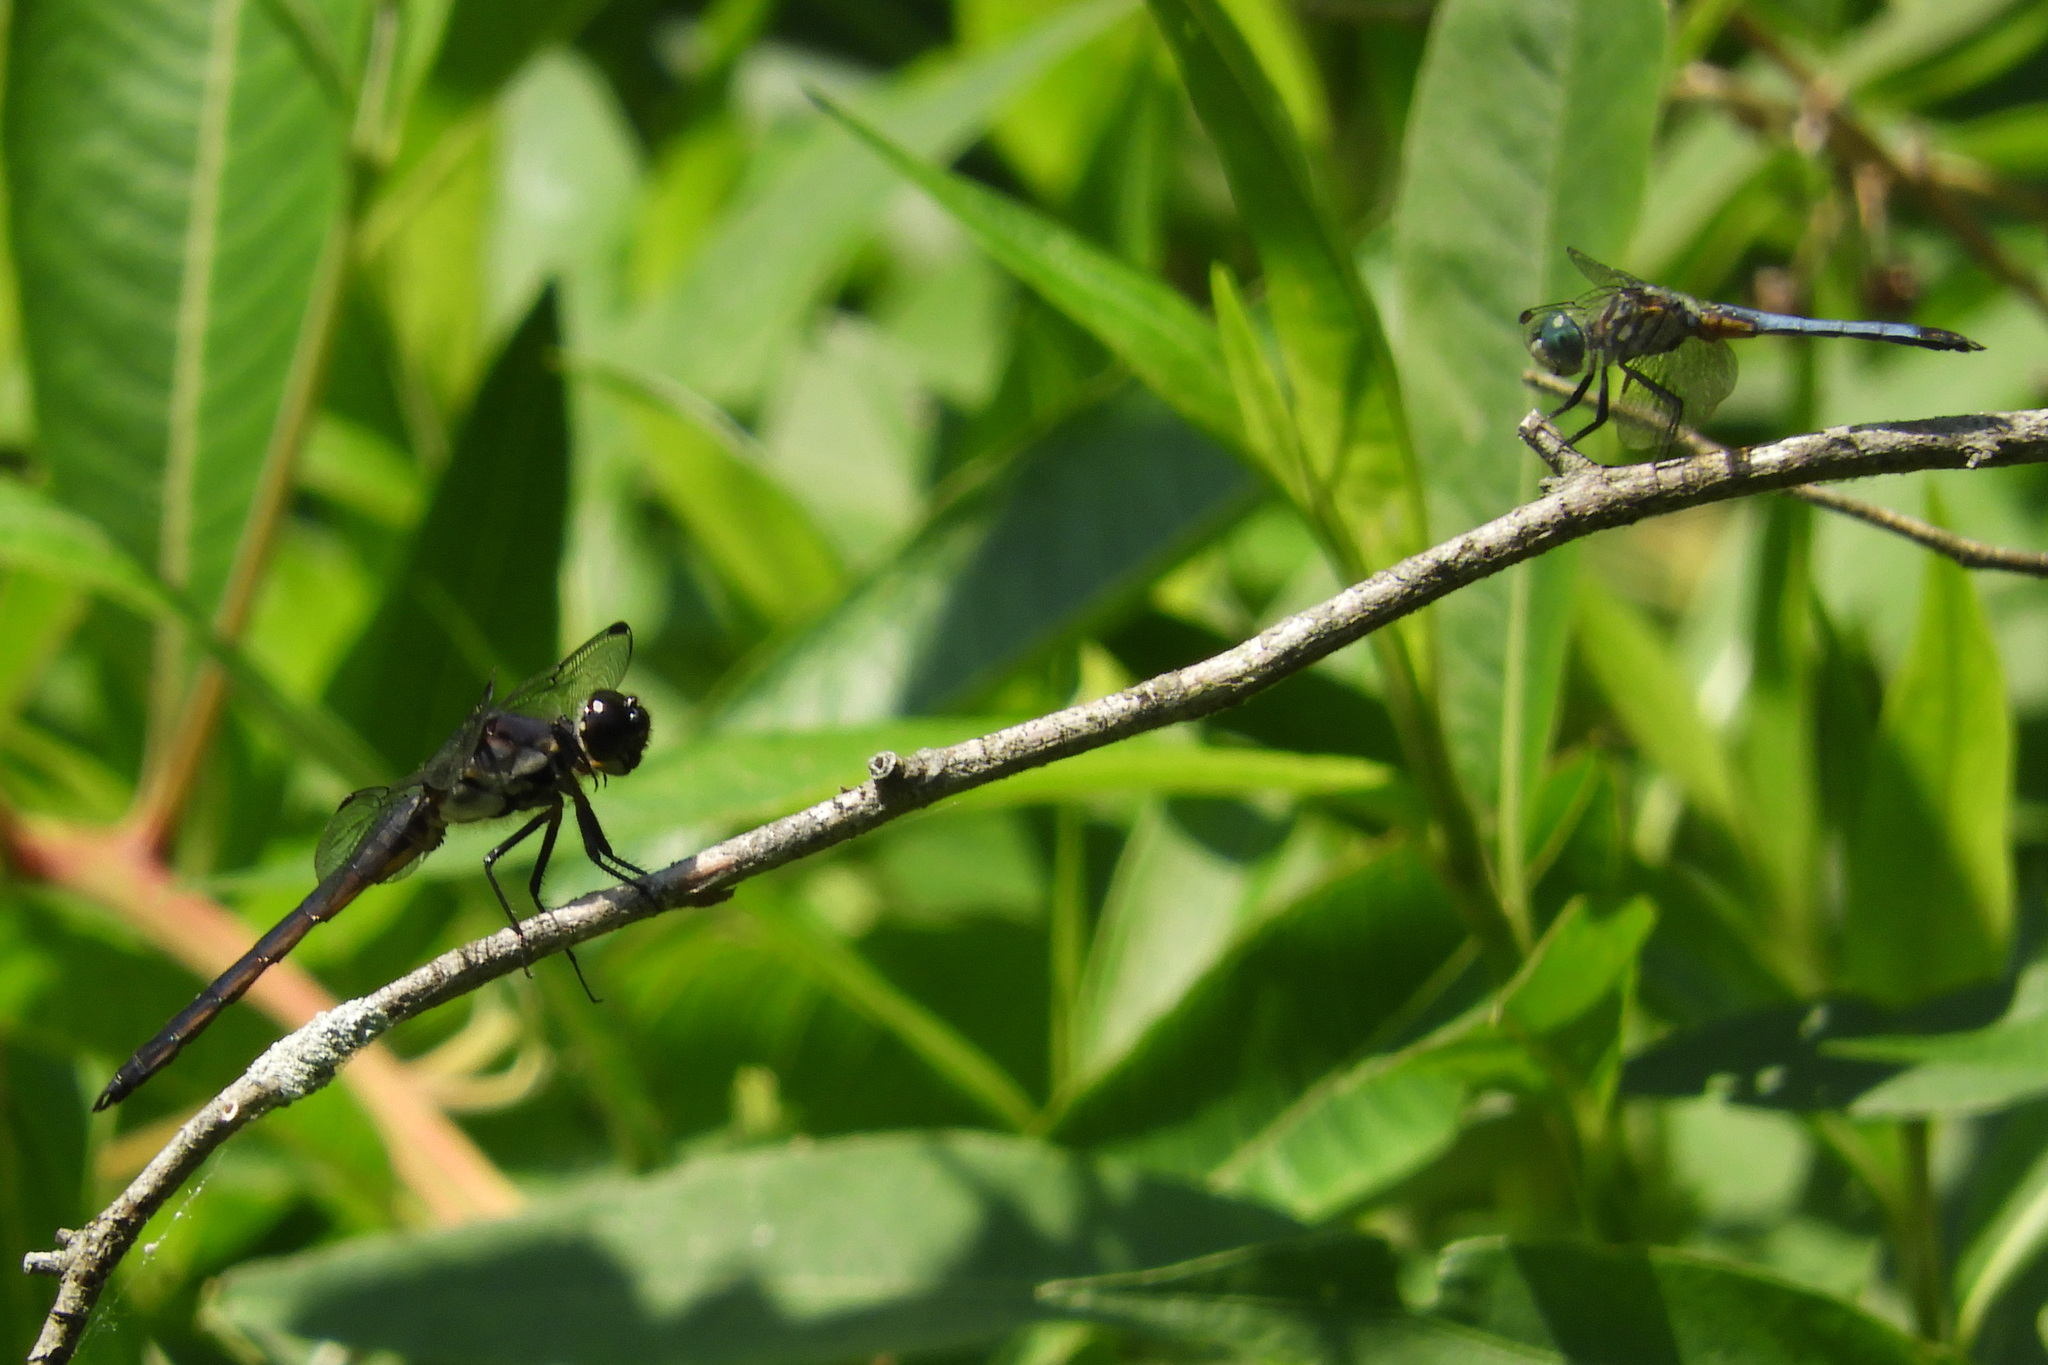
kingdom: Animalia
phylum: Arthropoda
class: Insecta
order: Odonata
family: Libellulidae
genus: Libellula
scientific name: Libellula incesta
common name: Slaty skimmer
